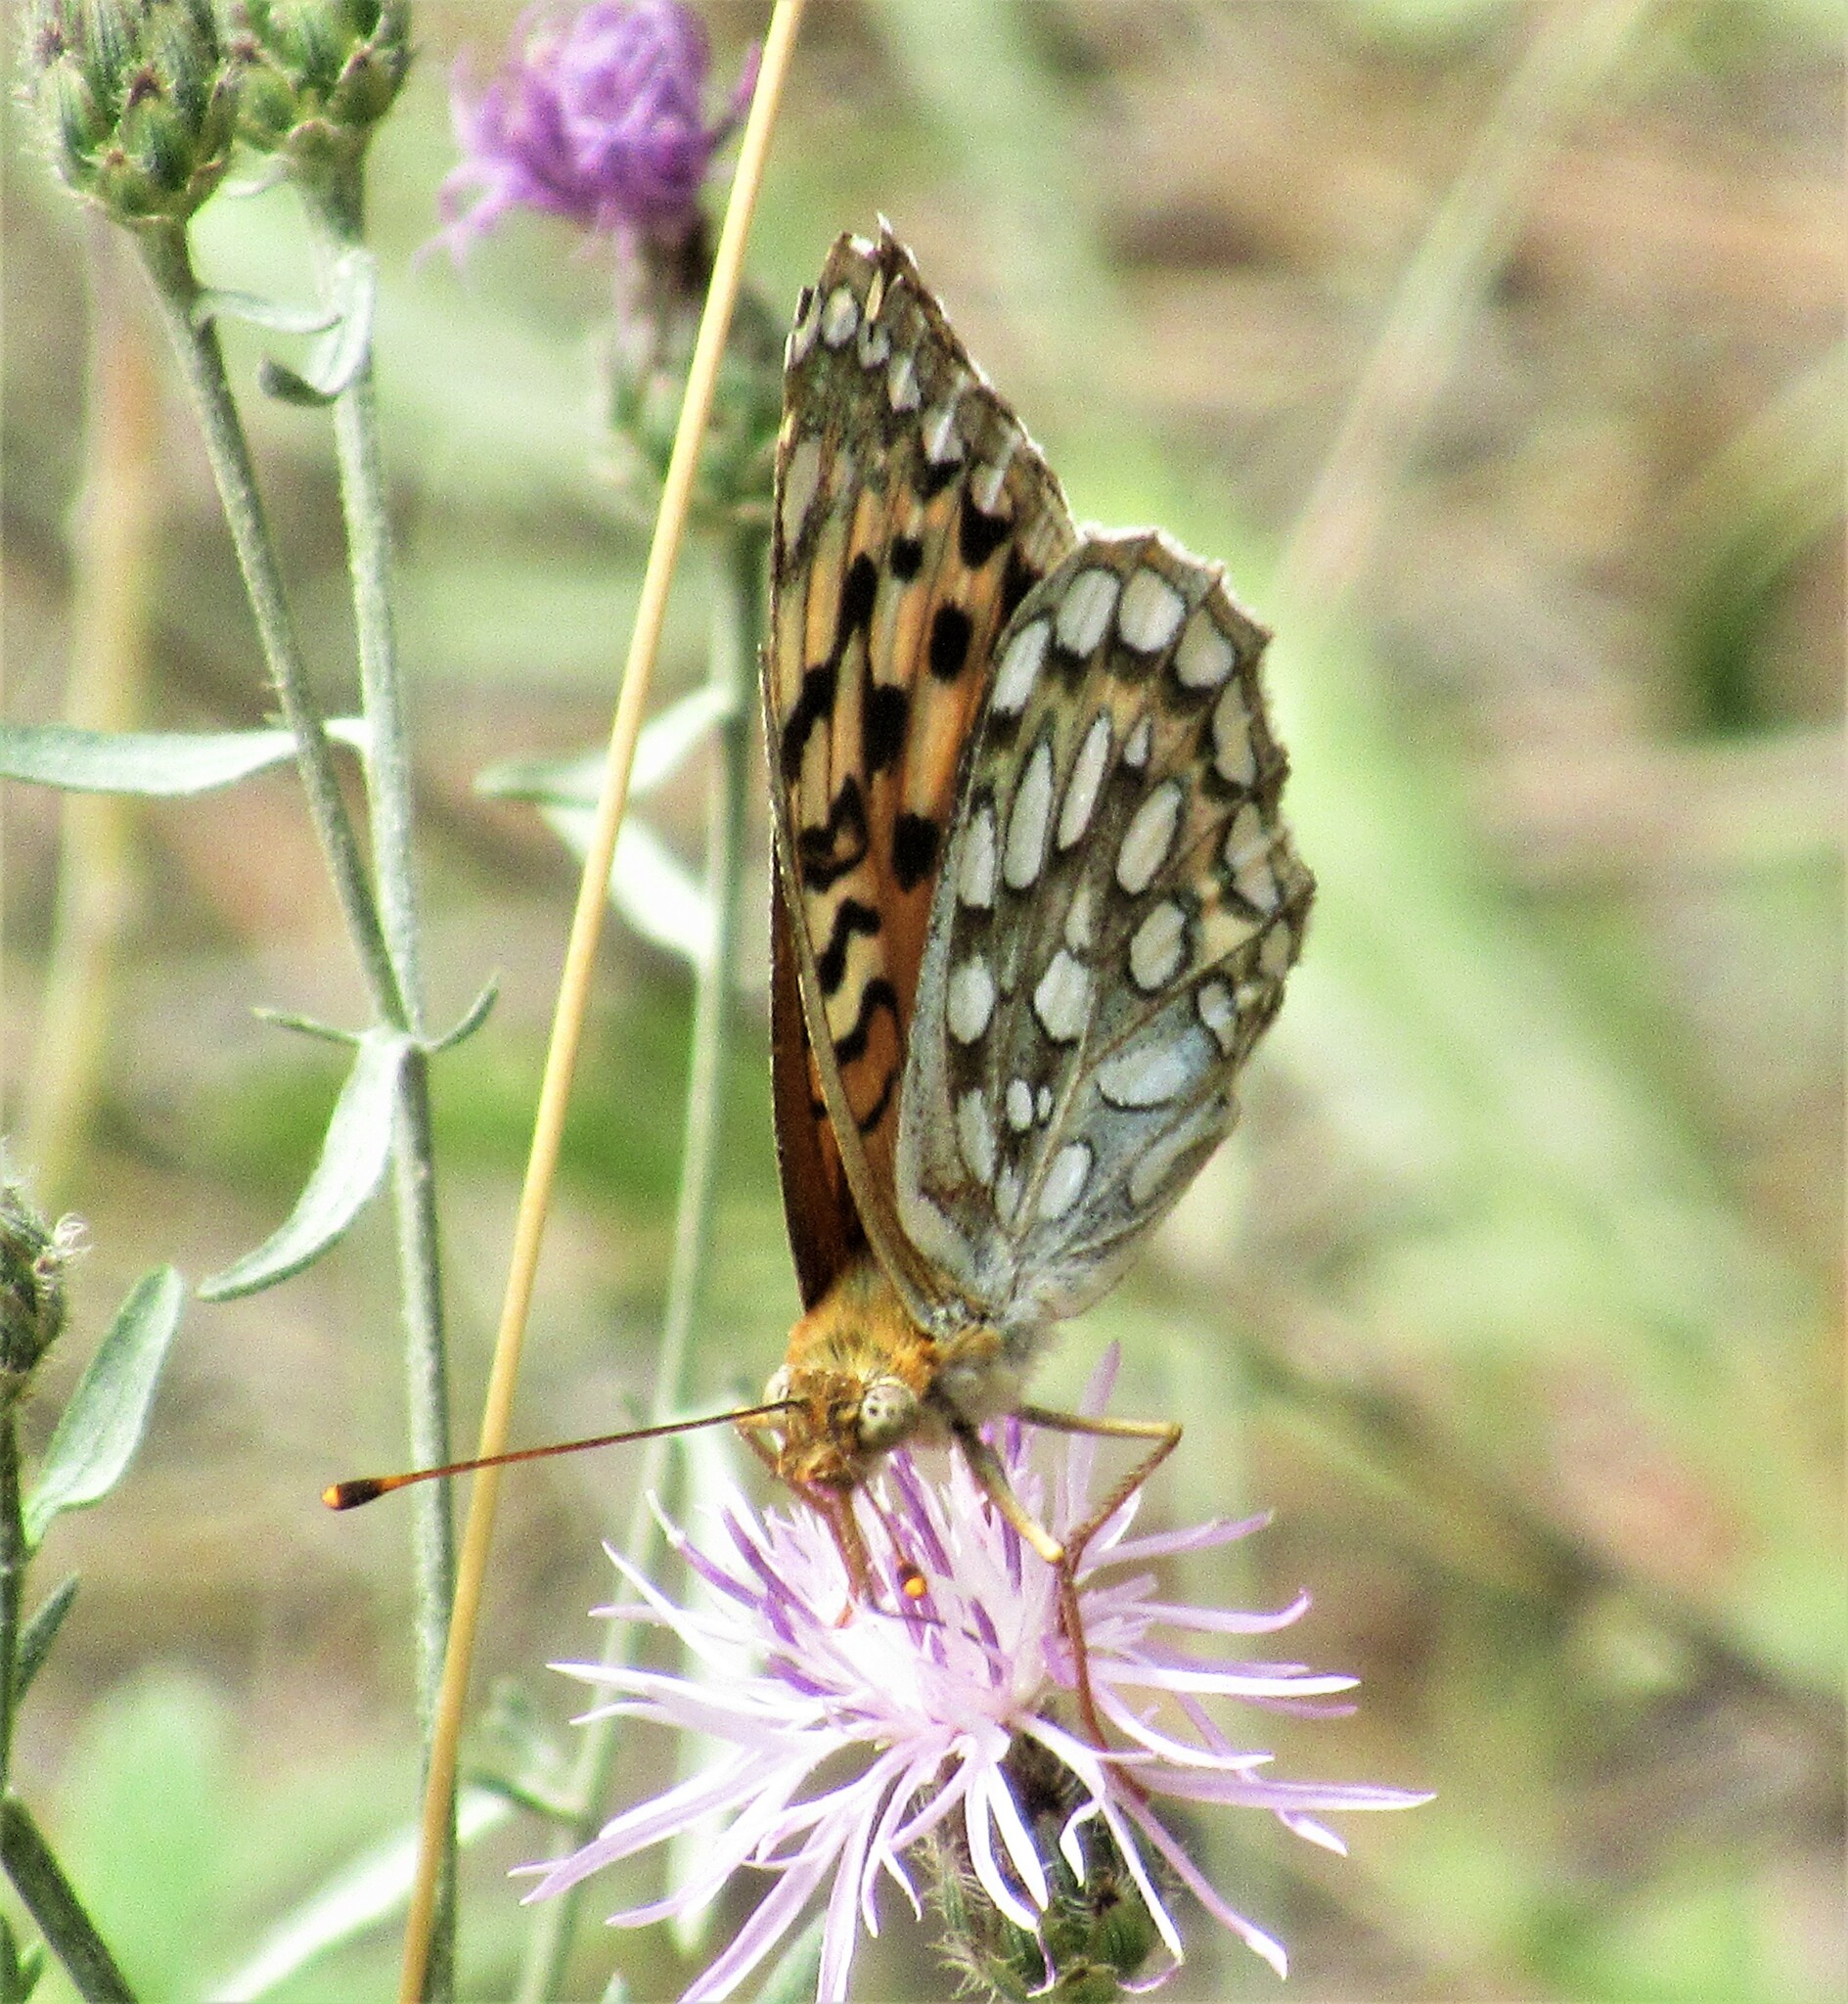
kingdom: Animalia
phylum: Arthropoda
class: Insecta
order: Lepidoptera
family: Nymphalidae
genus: Argynnis
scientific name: Argynnis coronis
